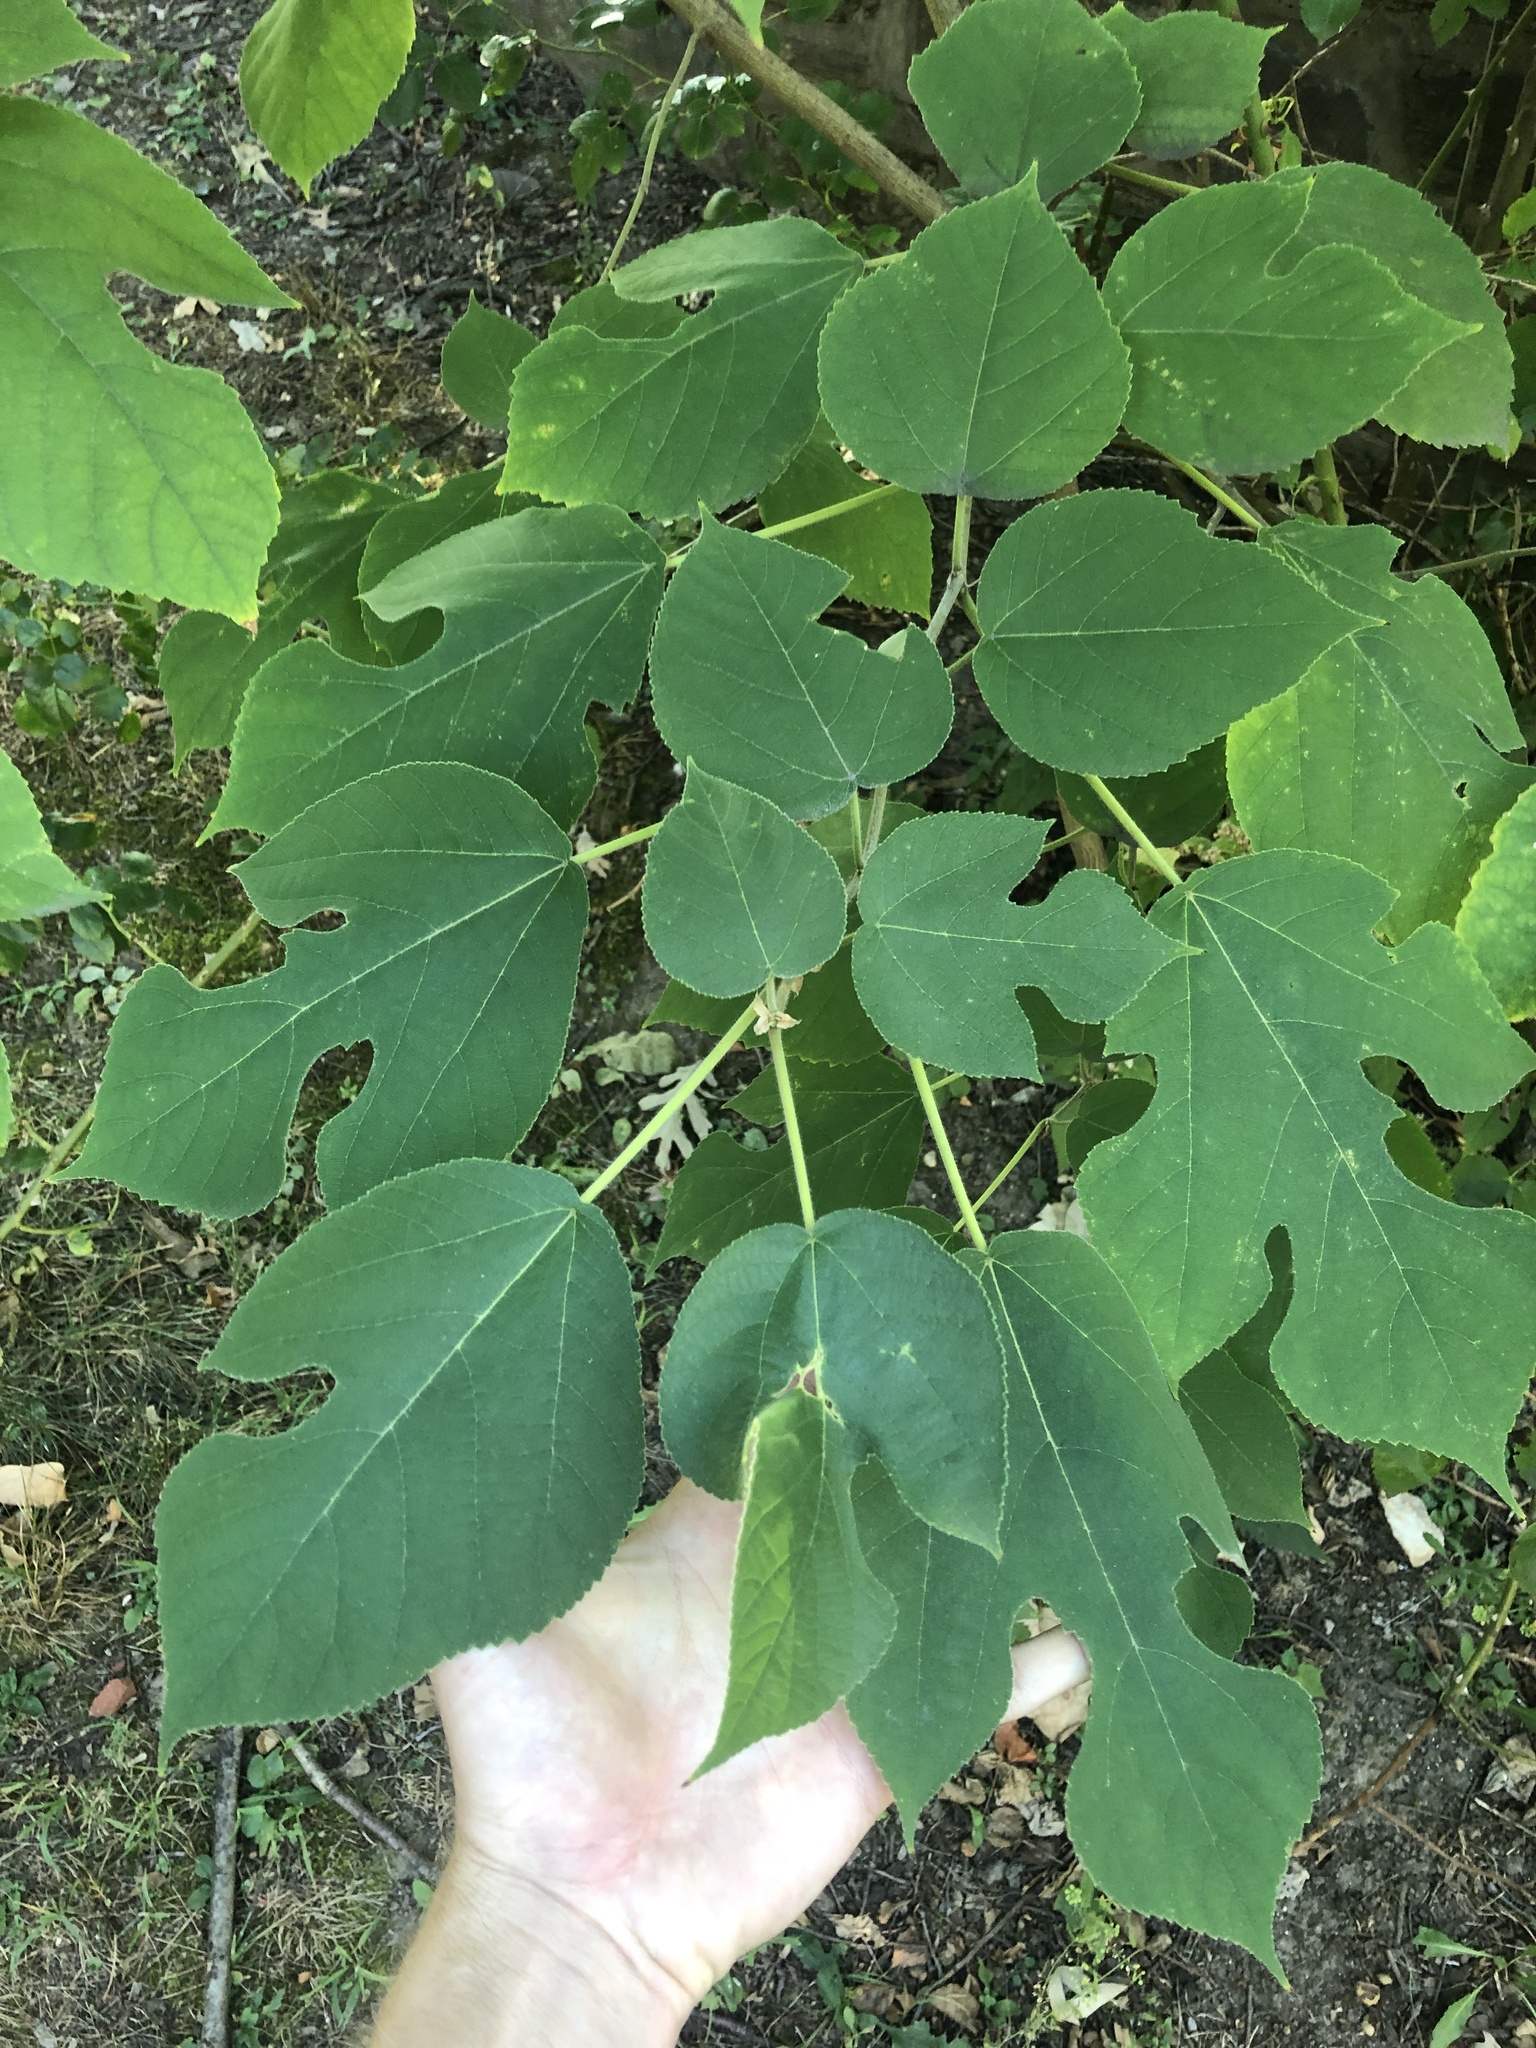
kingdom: Plantae
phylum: Tracheophyta
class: Magnoliopsida
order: Rosales
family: Moraceae
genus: Broussonetia
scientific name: Broussonetia papyrifera
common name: Paper mulberry
